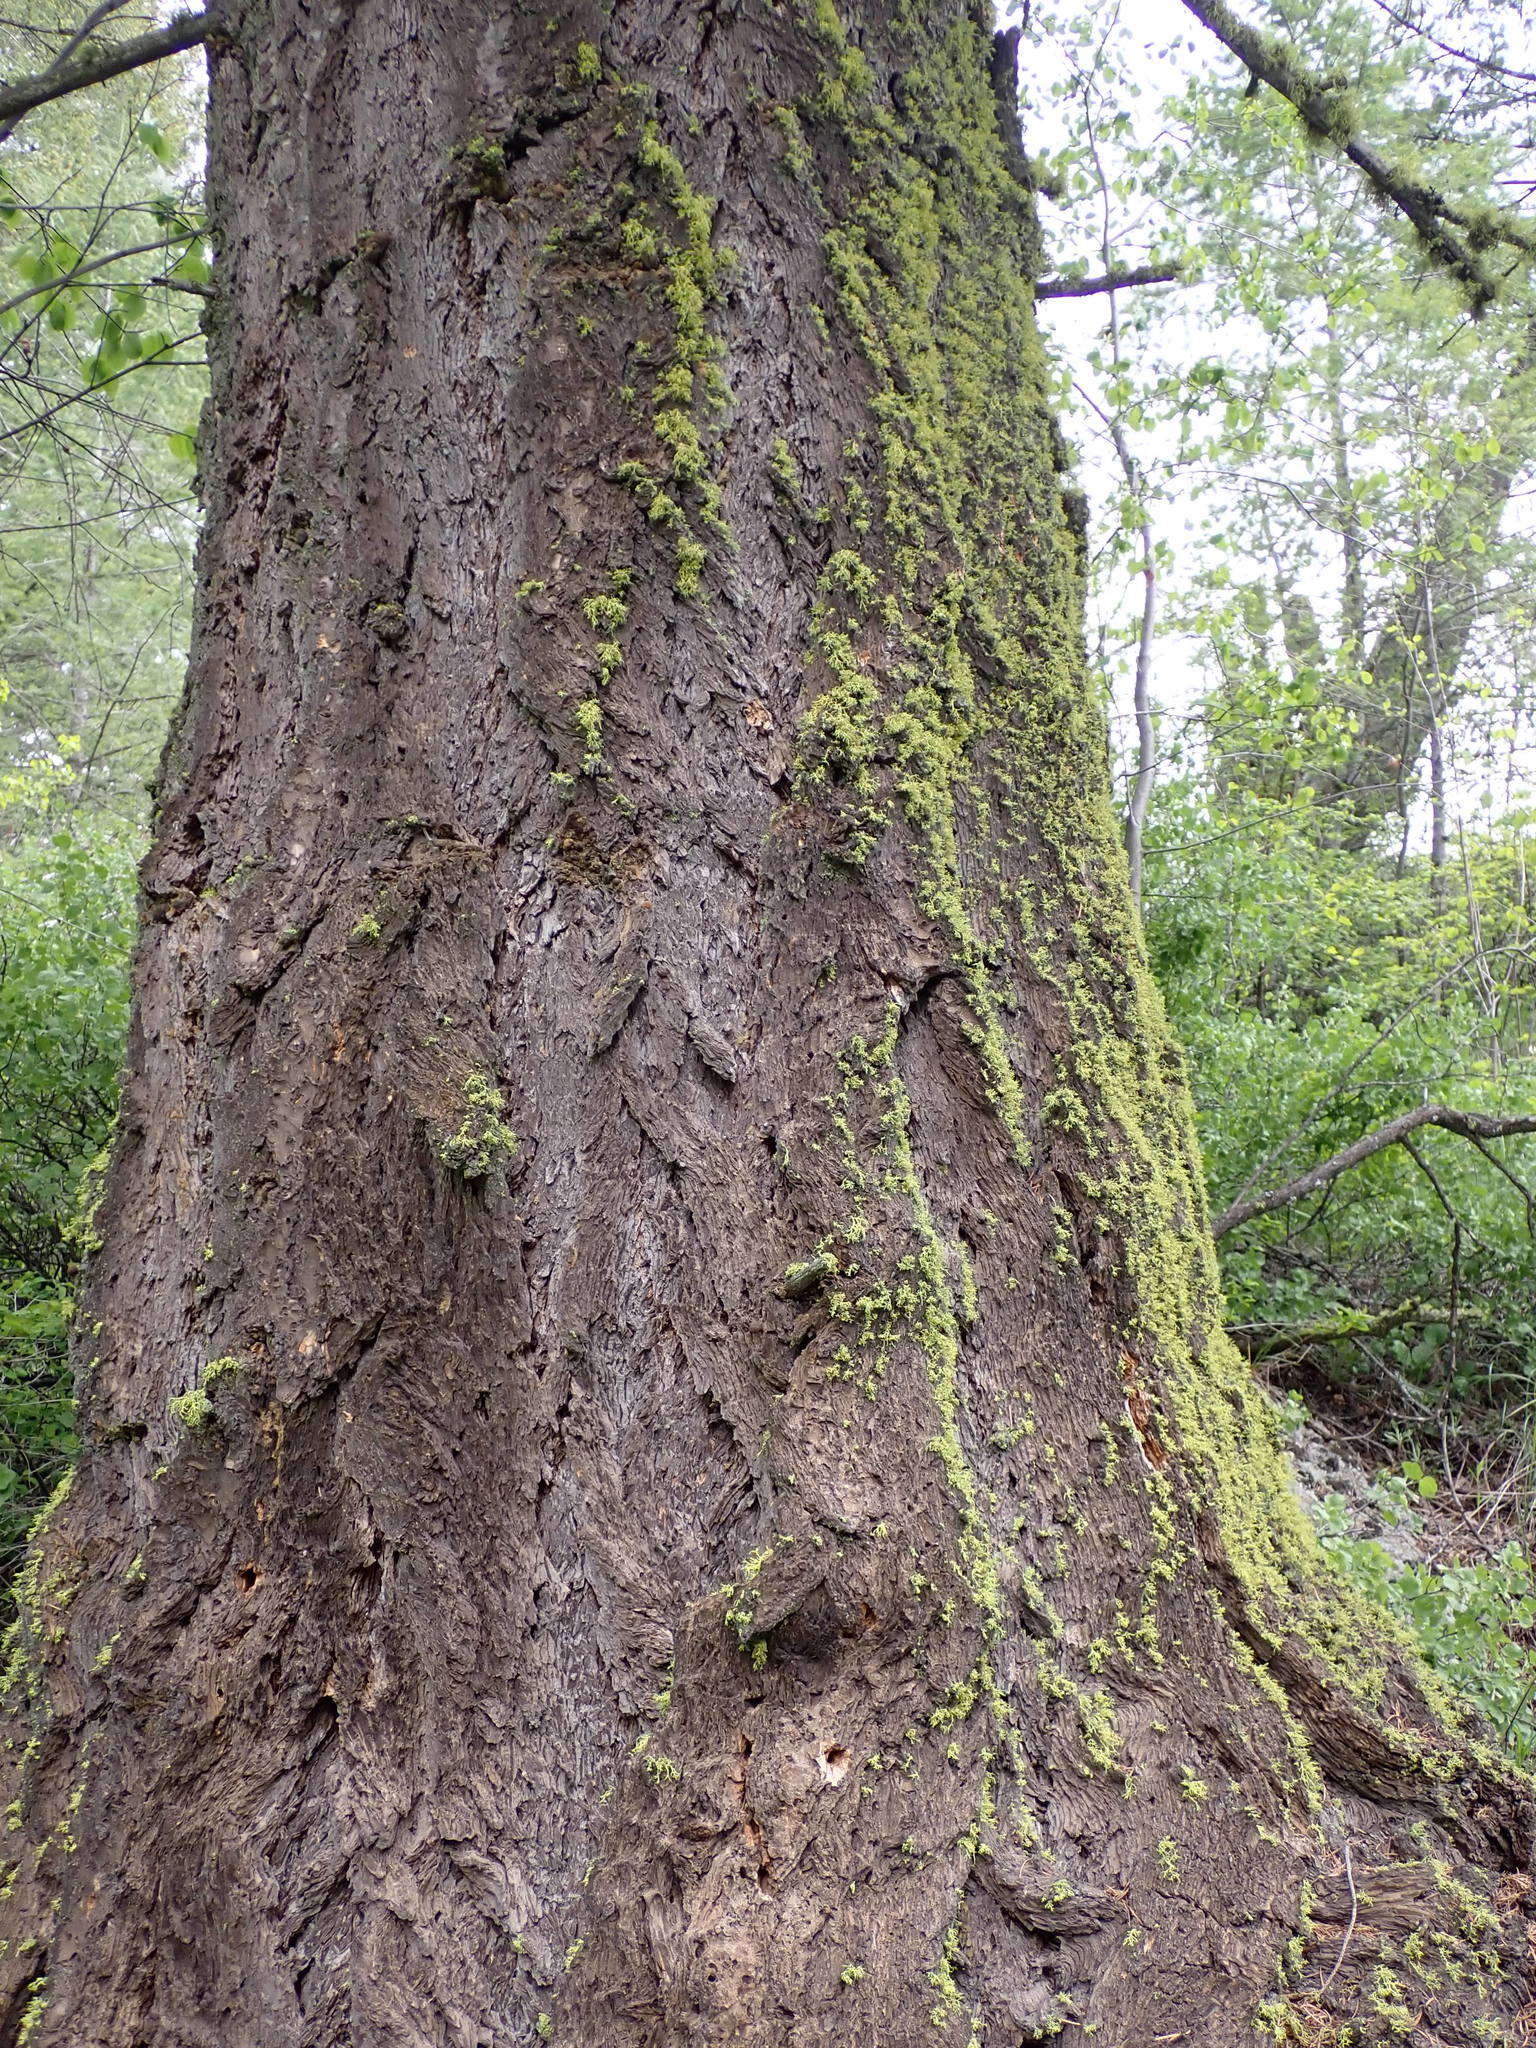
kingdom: Plantae
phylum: Tracheophyta
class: Pinopsida
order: Pinales
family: Pinaceae
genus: Pseudotsuga
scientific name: Pseudotsuga menziesii
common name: Douglas fir
